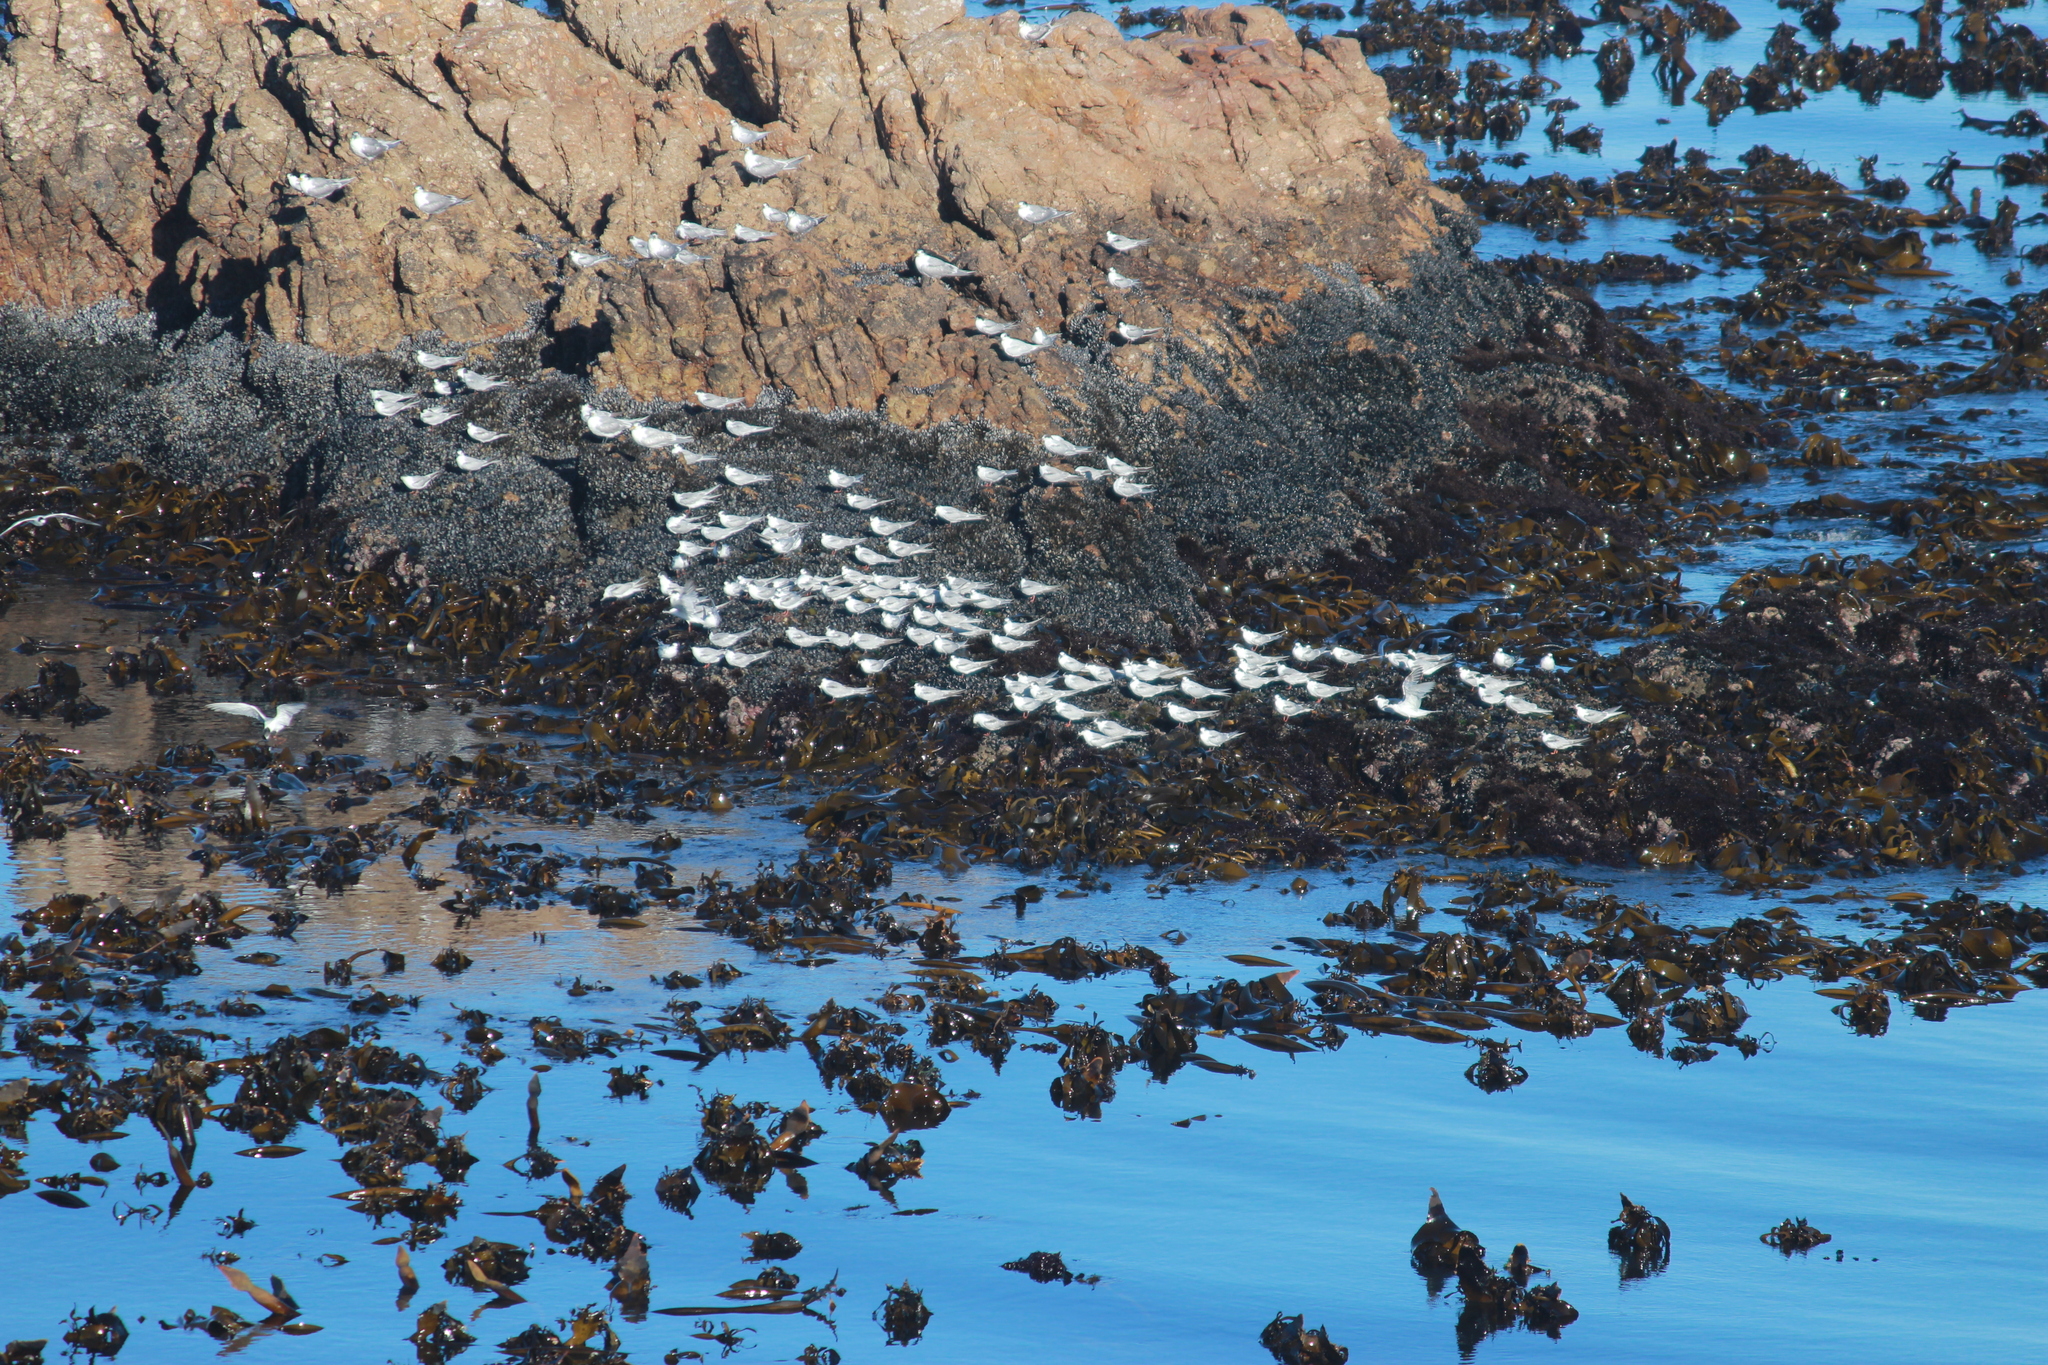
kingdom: Animalia
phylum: Chordata
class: Aves
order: Charadriiformes
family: Laridae
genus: Sterna
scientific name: Sterna hirundo
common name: Common tern
